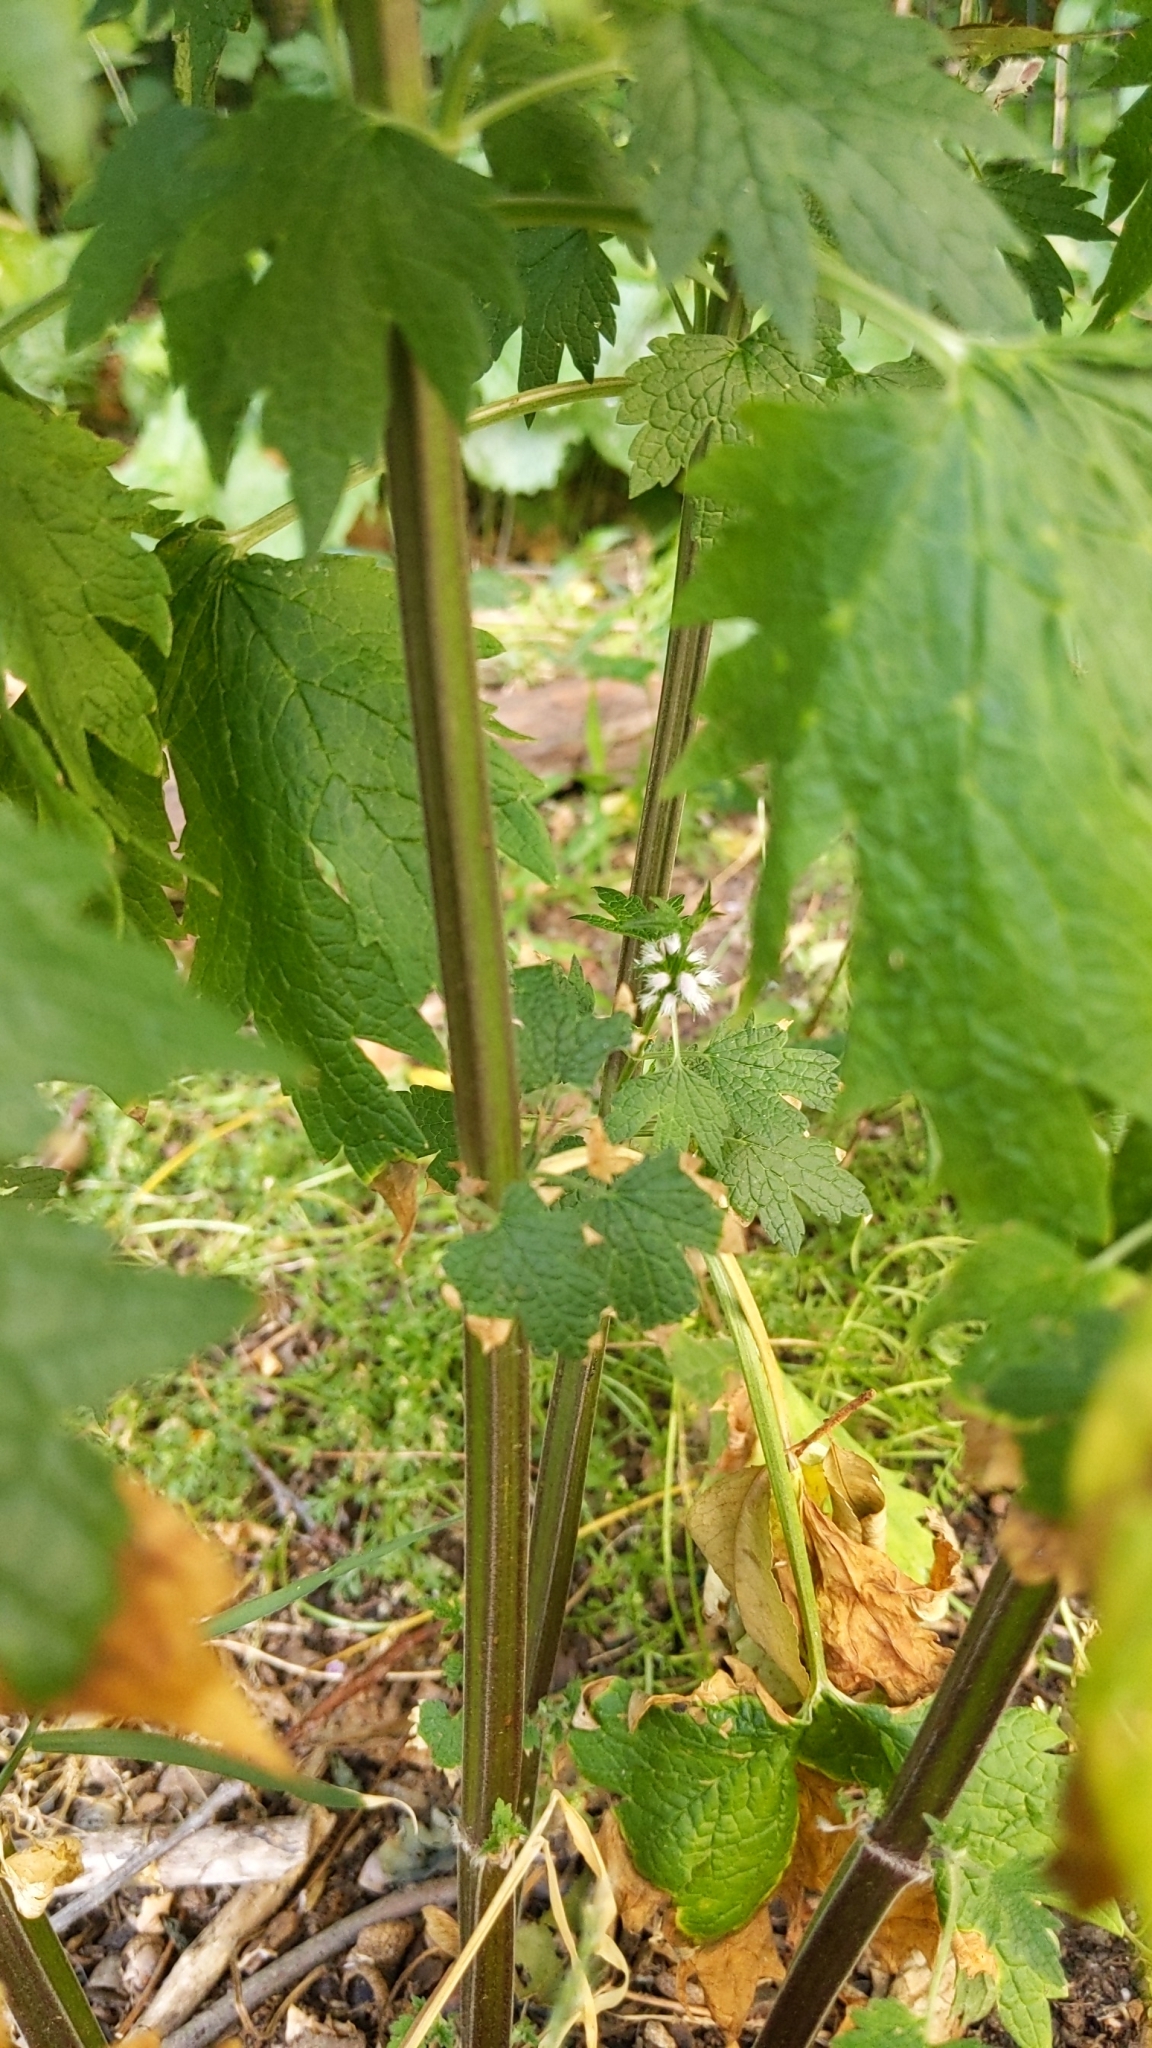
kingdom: Plantae
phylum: Tracheophyta
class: Magnoliopsida
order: Lamiales
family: Lamiaceae
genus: Leonurus
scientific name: Leonurus cardiaca
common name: Motherwort
